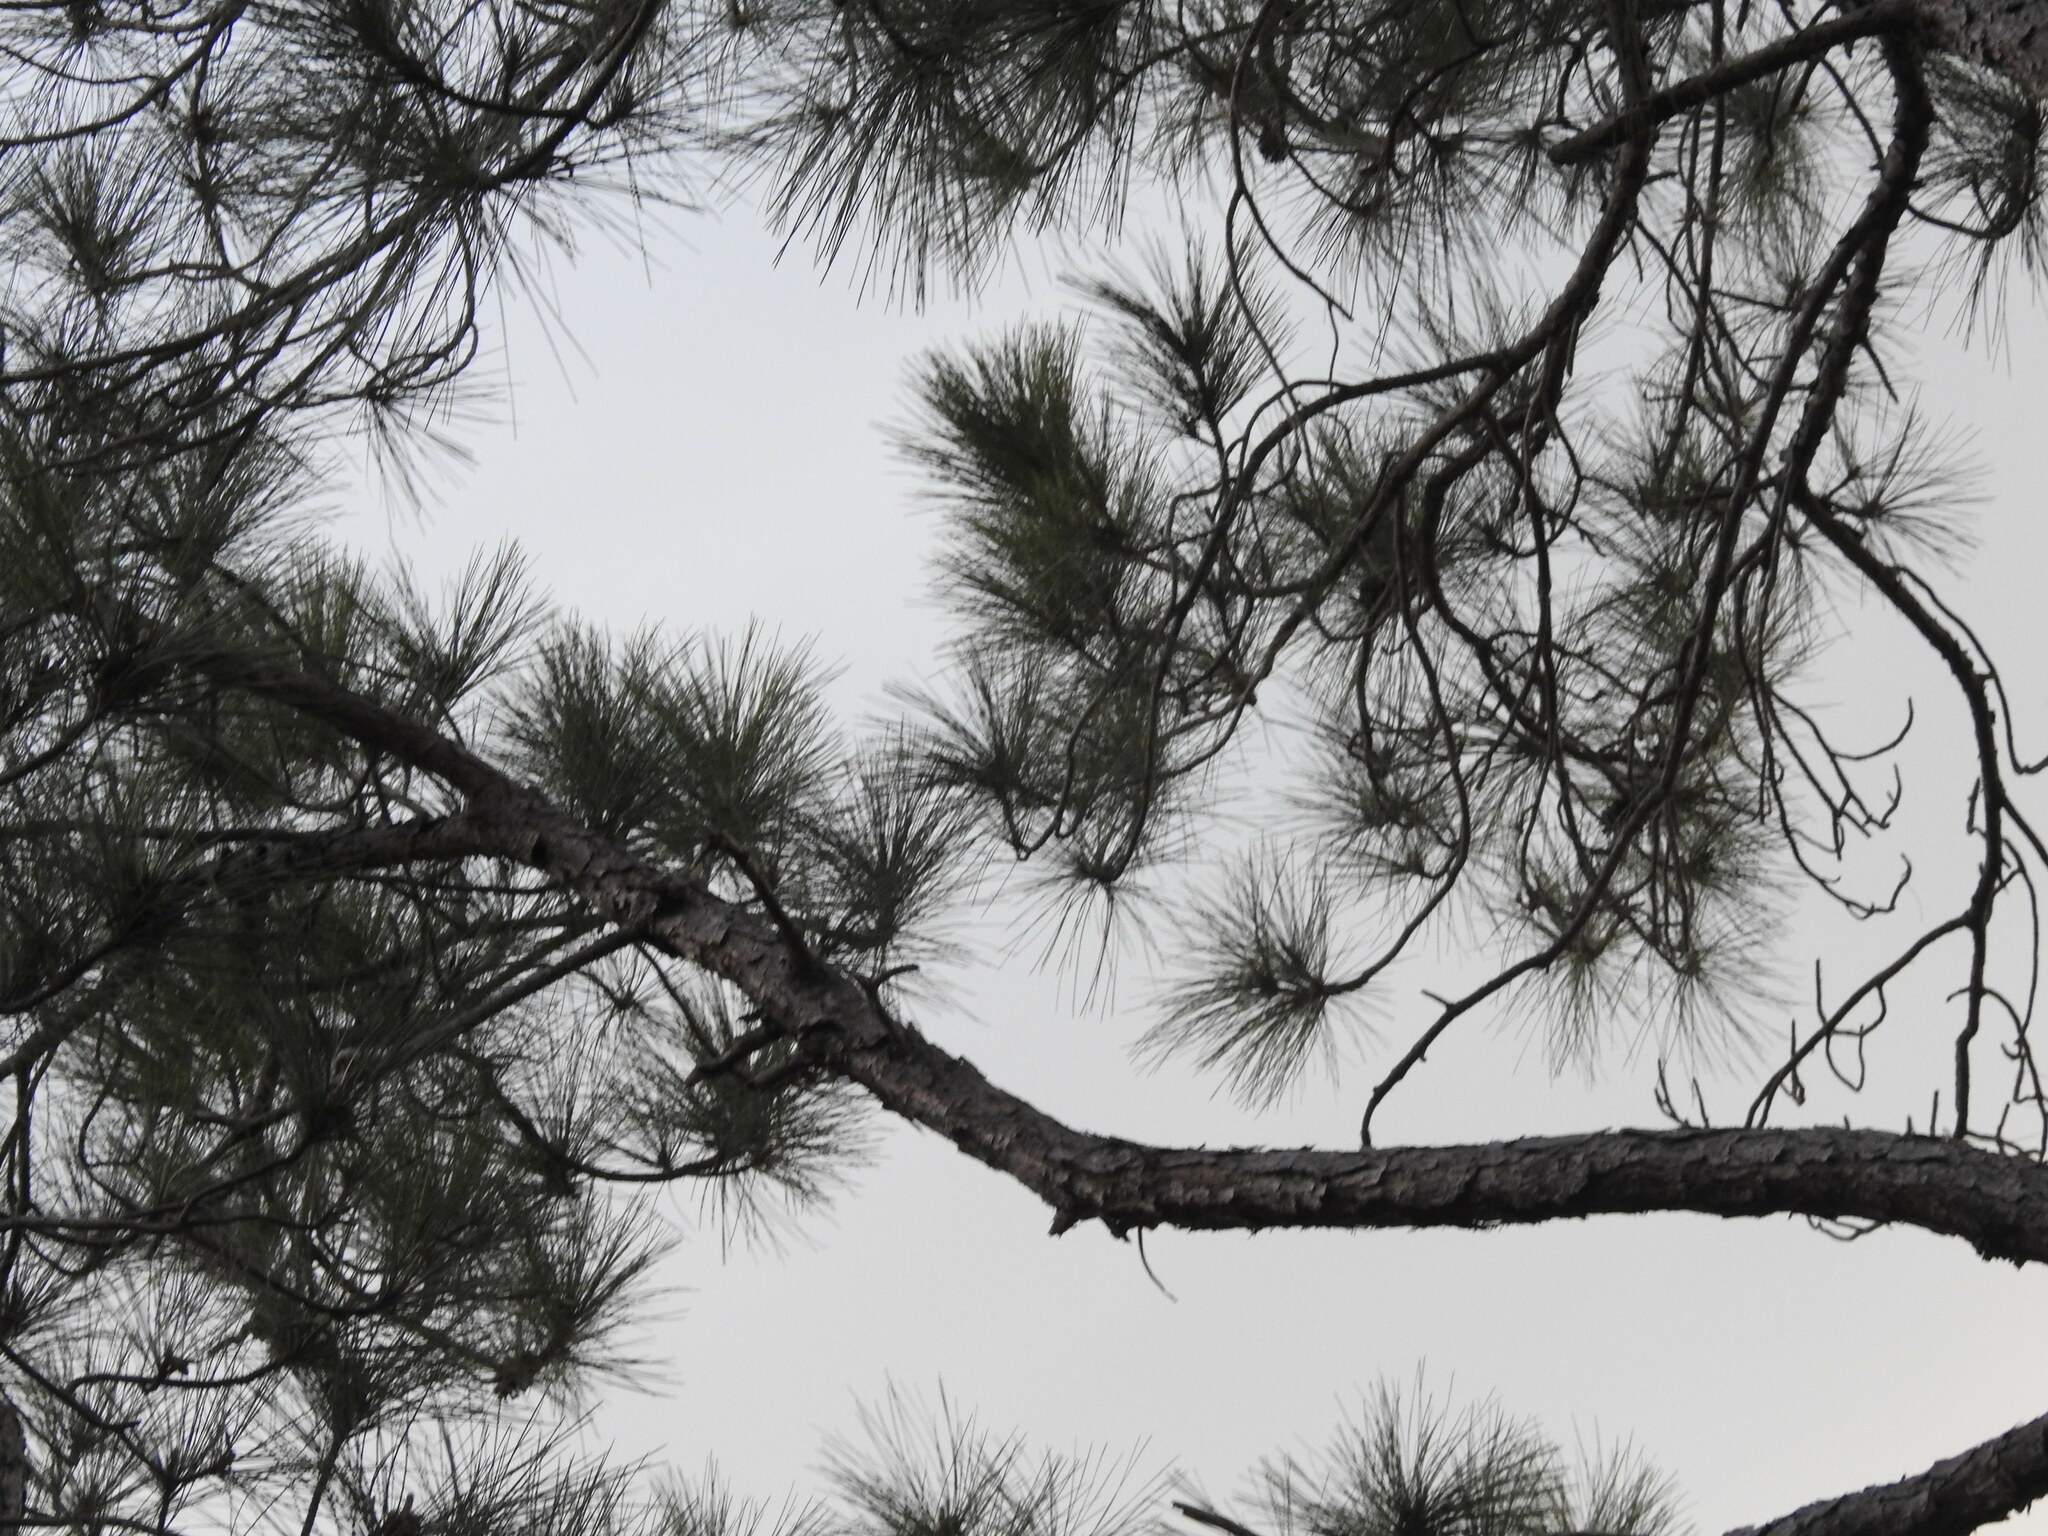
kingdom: Plantae
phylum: Tracheophyta
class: Pinopsida
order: Pinales
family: Pinaceae
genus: Pinus
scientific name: Pinus elliottii
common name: Slash pine
